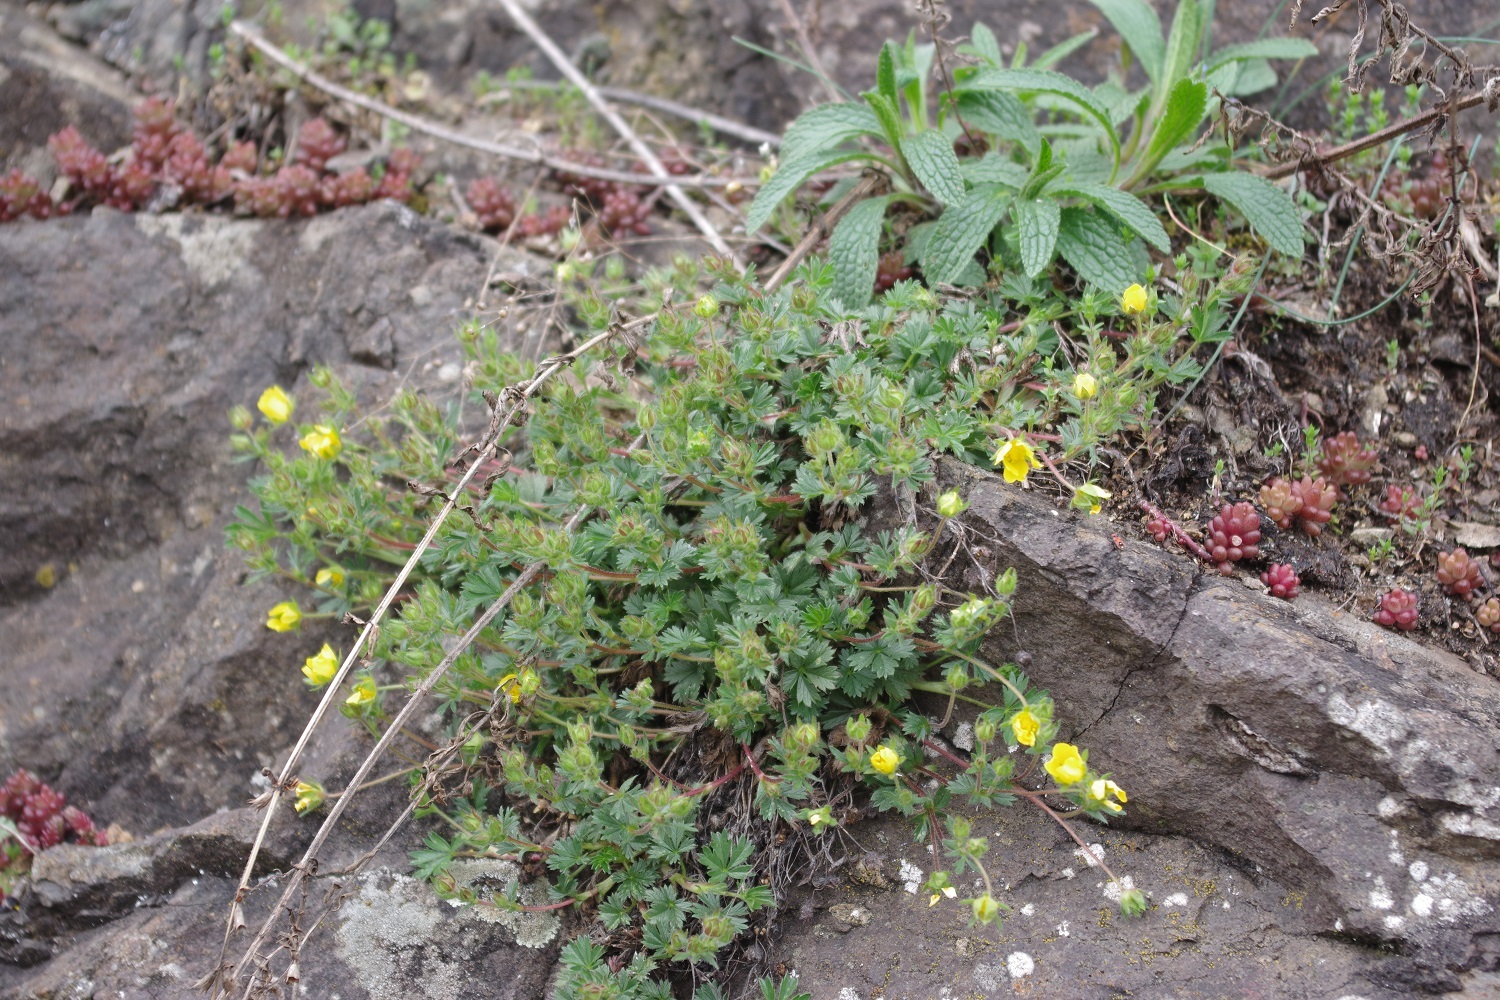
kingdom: Plantae
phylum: Tracheophyta
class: Magnoliopsida
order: Rosales
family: Rosaceae
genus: Potentilla
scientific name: Potentilla verna
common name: Spring cinquefoil
